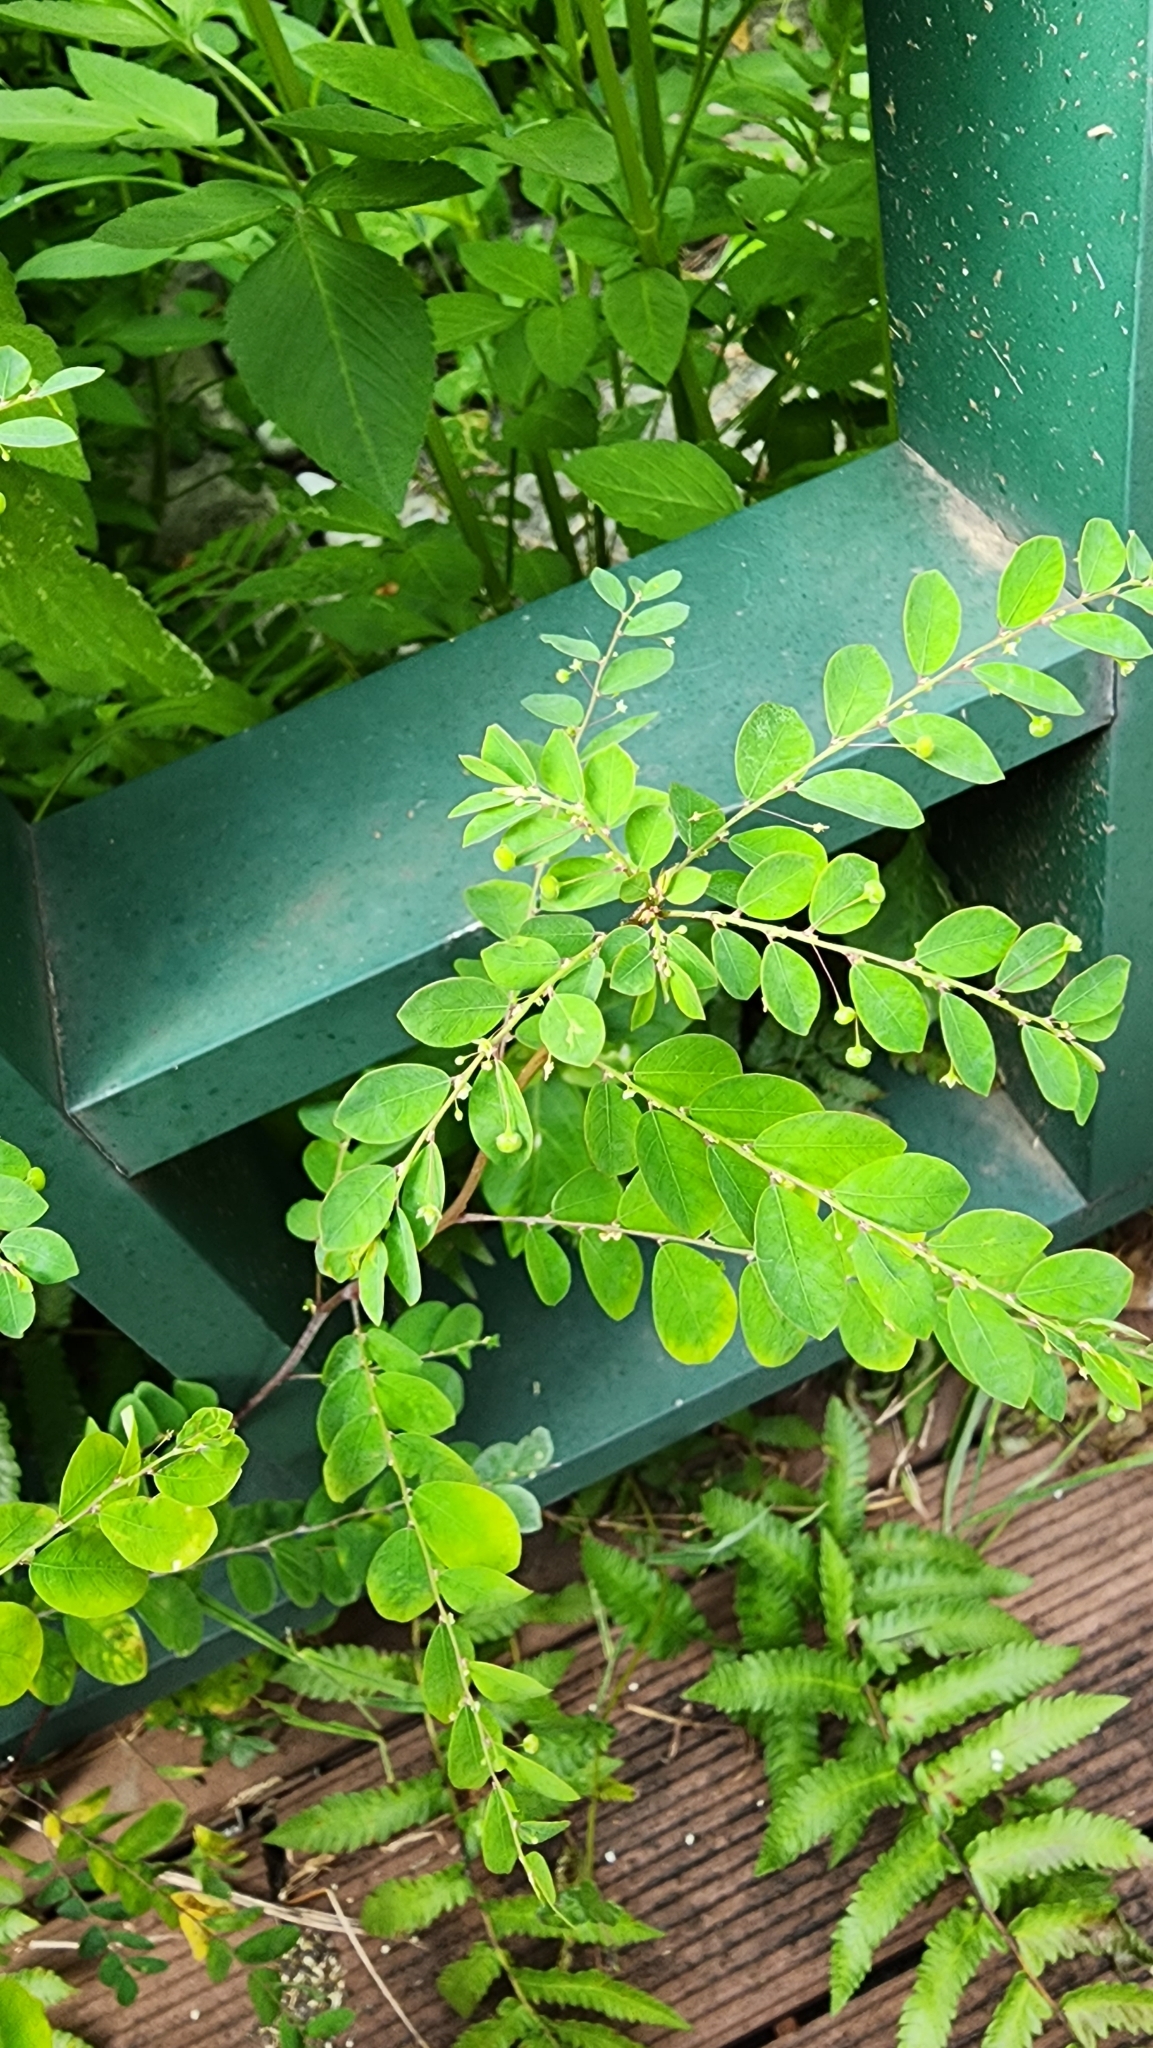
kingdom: Plantae
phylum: Tracheophyta
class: Magnoliopsida
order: Malpighiales
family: Phyllanthaceae
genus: Phyllanthus
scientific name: Phyllanthus tenellus
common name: Mascarene island leaf-flower
